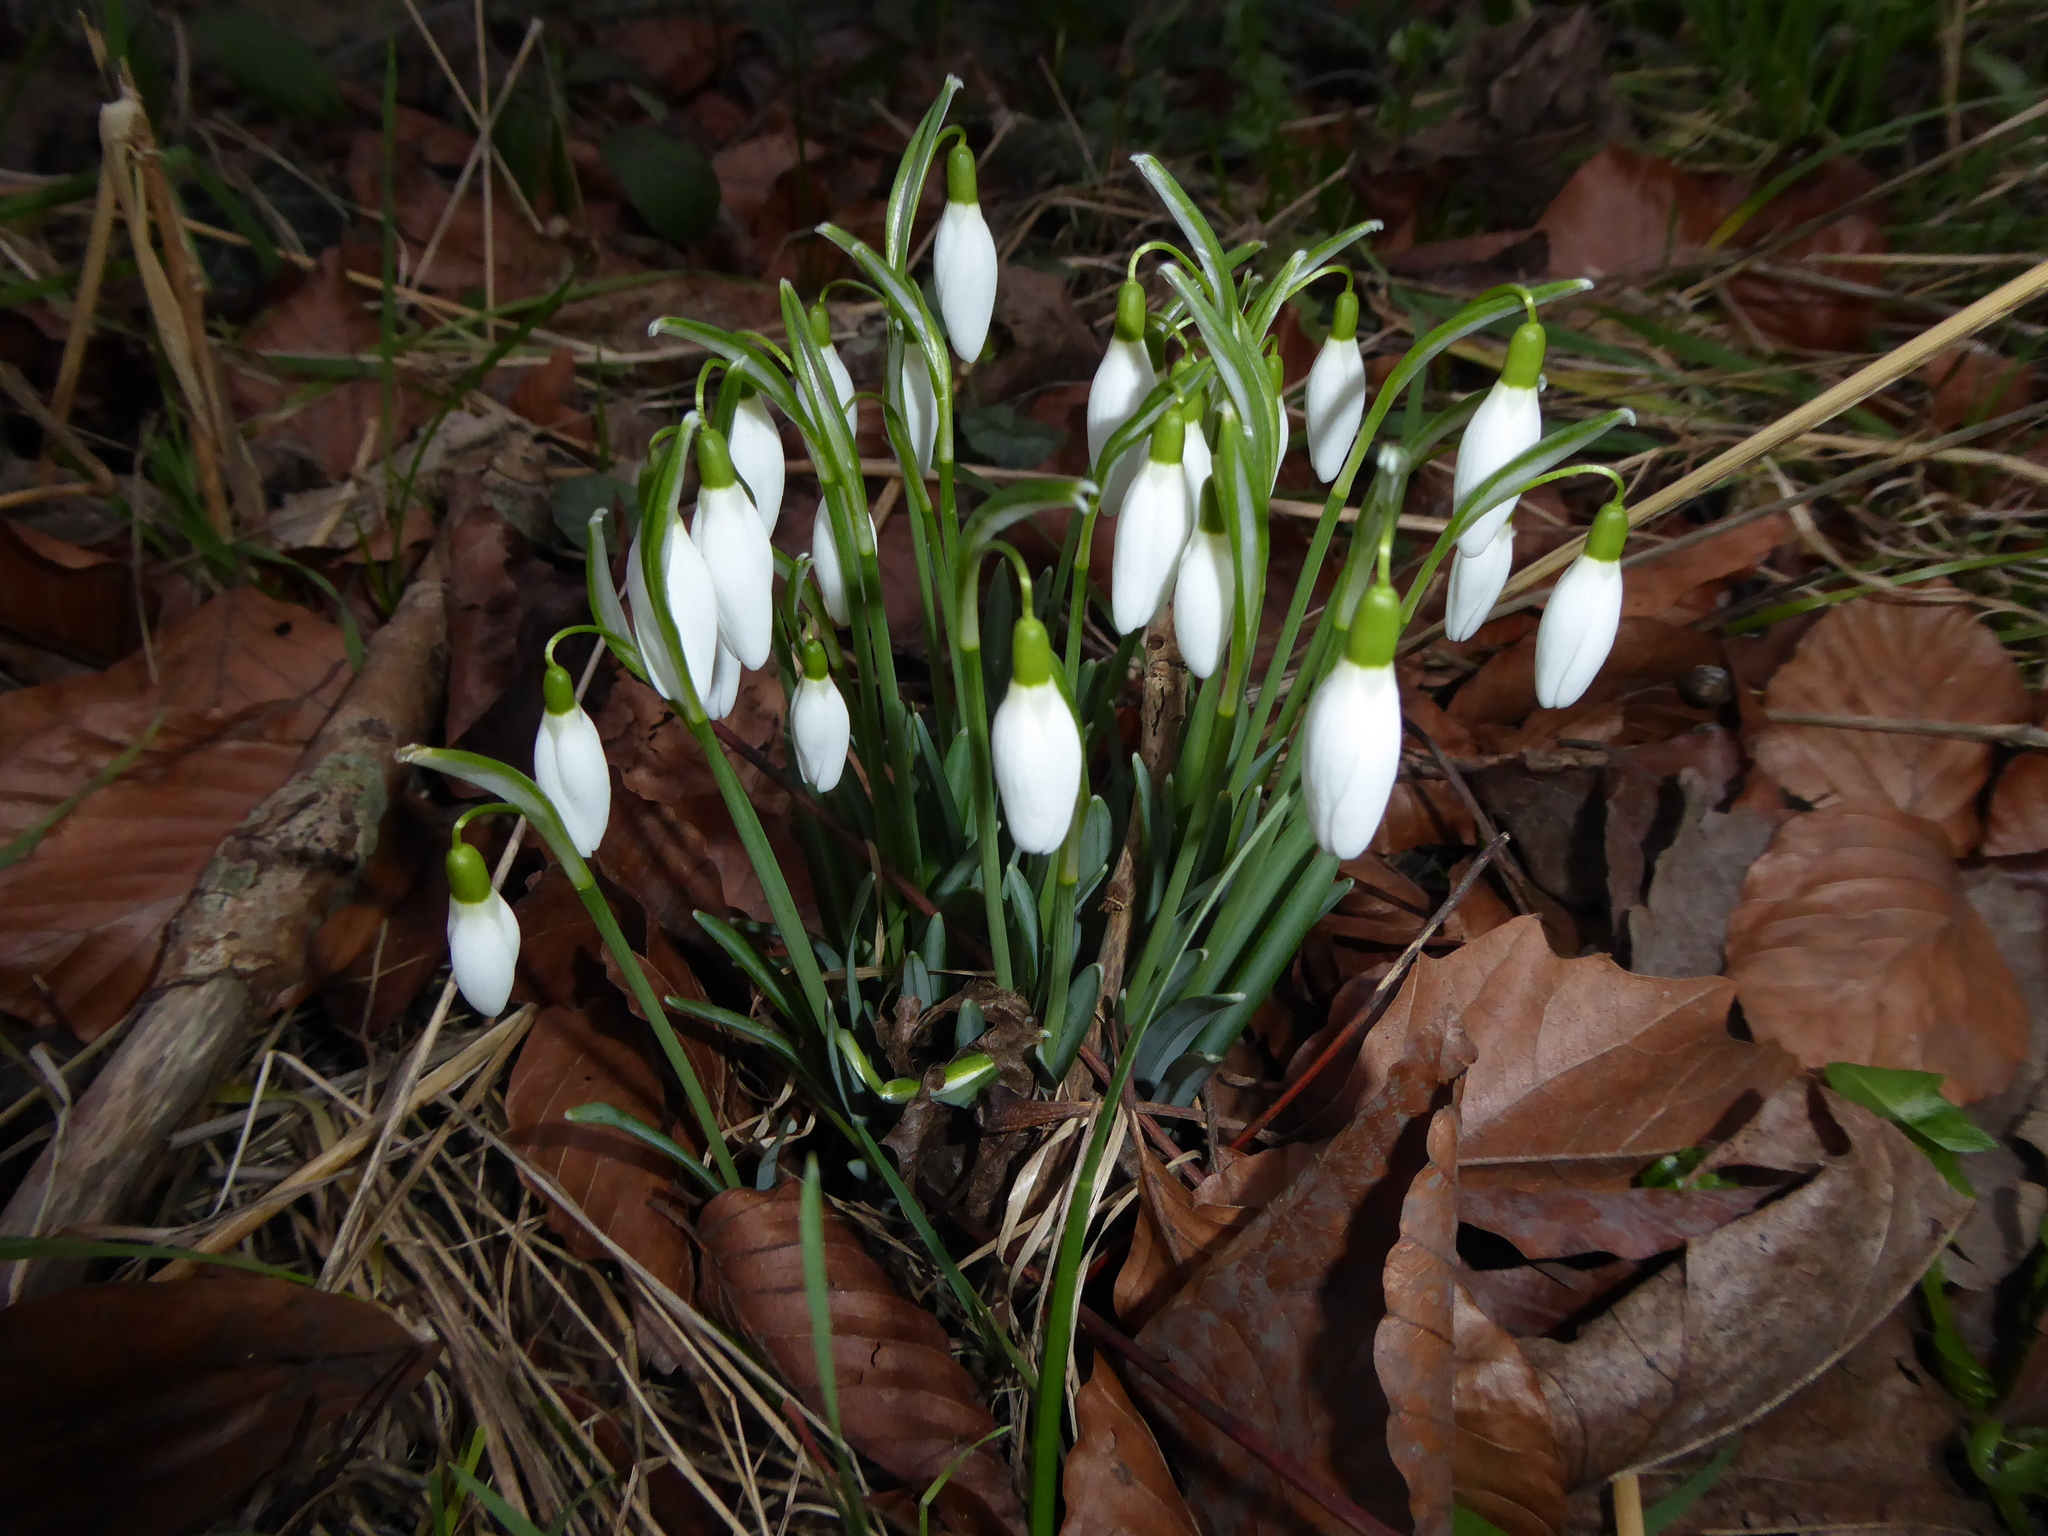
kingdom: Plantae
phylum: Tracheophyta
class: Liliopsida
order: Asparagales
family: Amaryllidaceae
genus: Galanthus
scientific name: Galanthus nivalis
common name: Snowdrop
